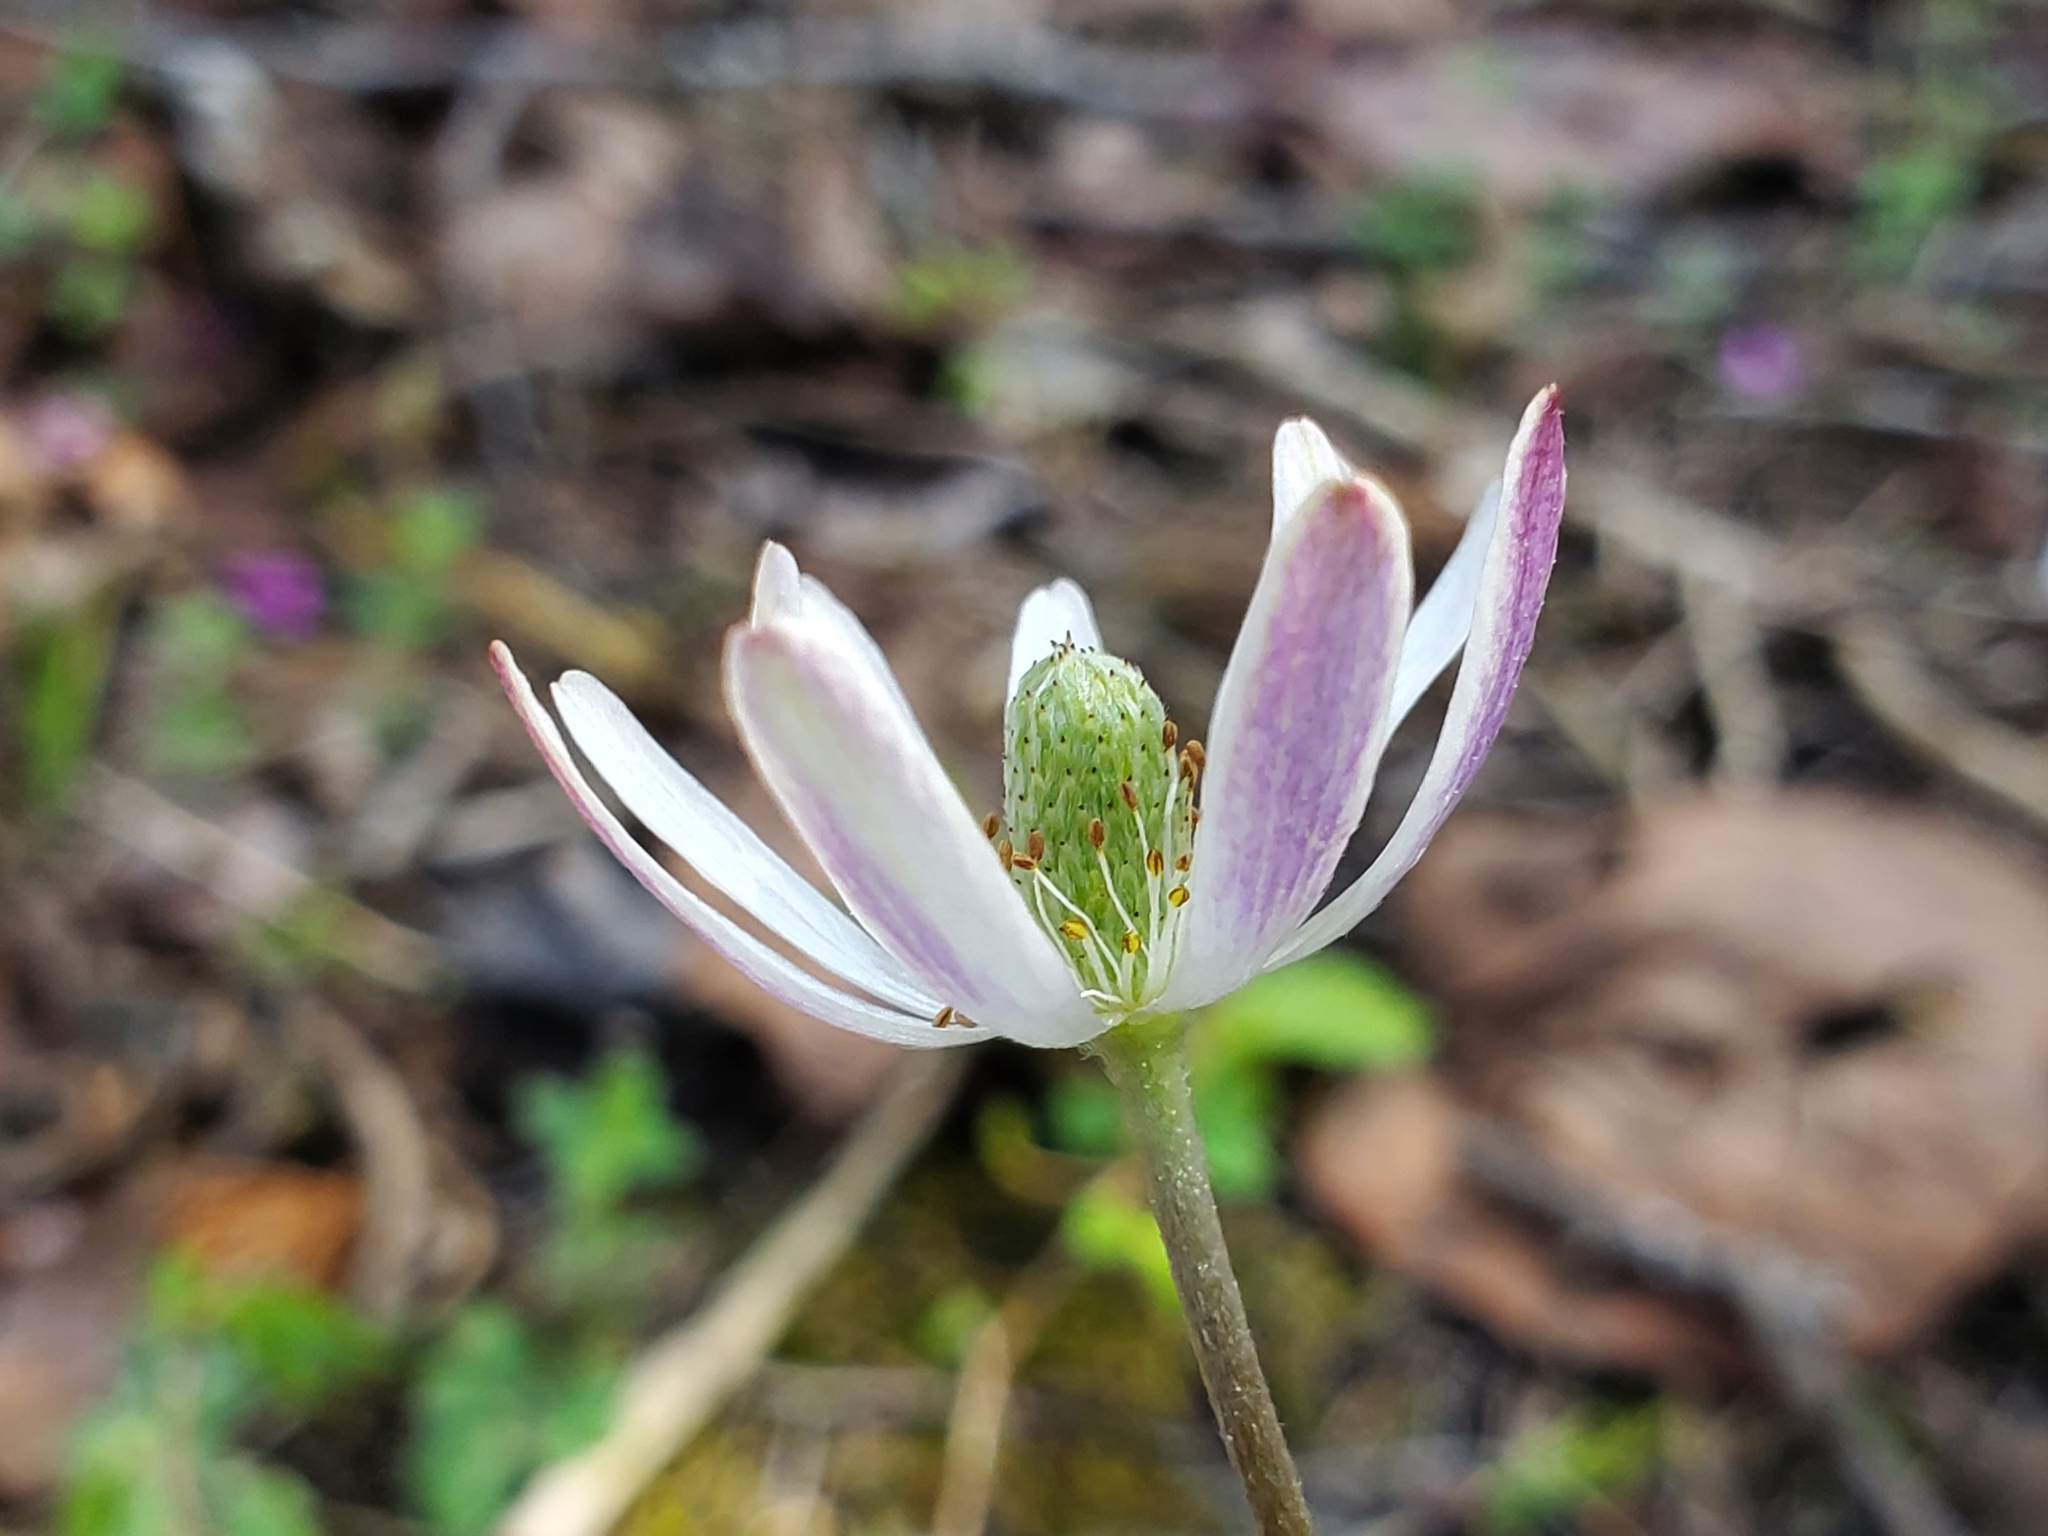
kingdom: Plantae
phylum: Tracheophyta
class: Magnoliopsida
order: Ranunculales
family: Ranunculaceae
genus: Anemone
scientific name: Anemone berlandieri
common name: Ten-petal anemone
